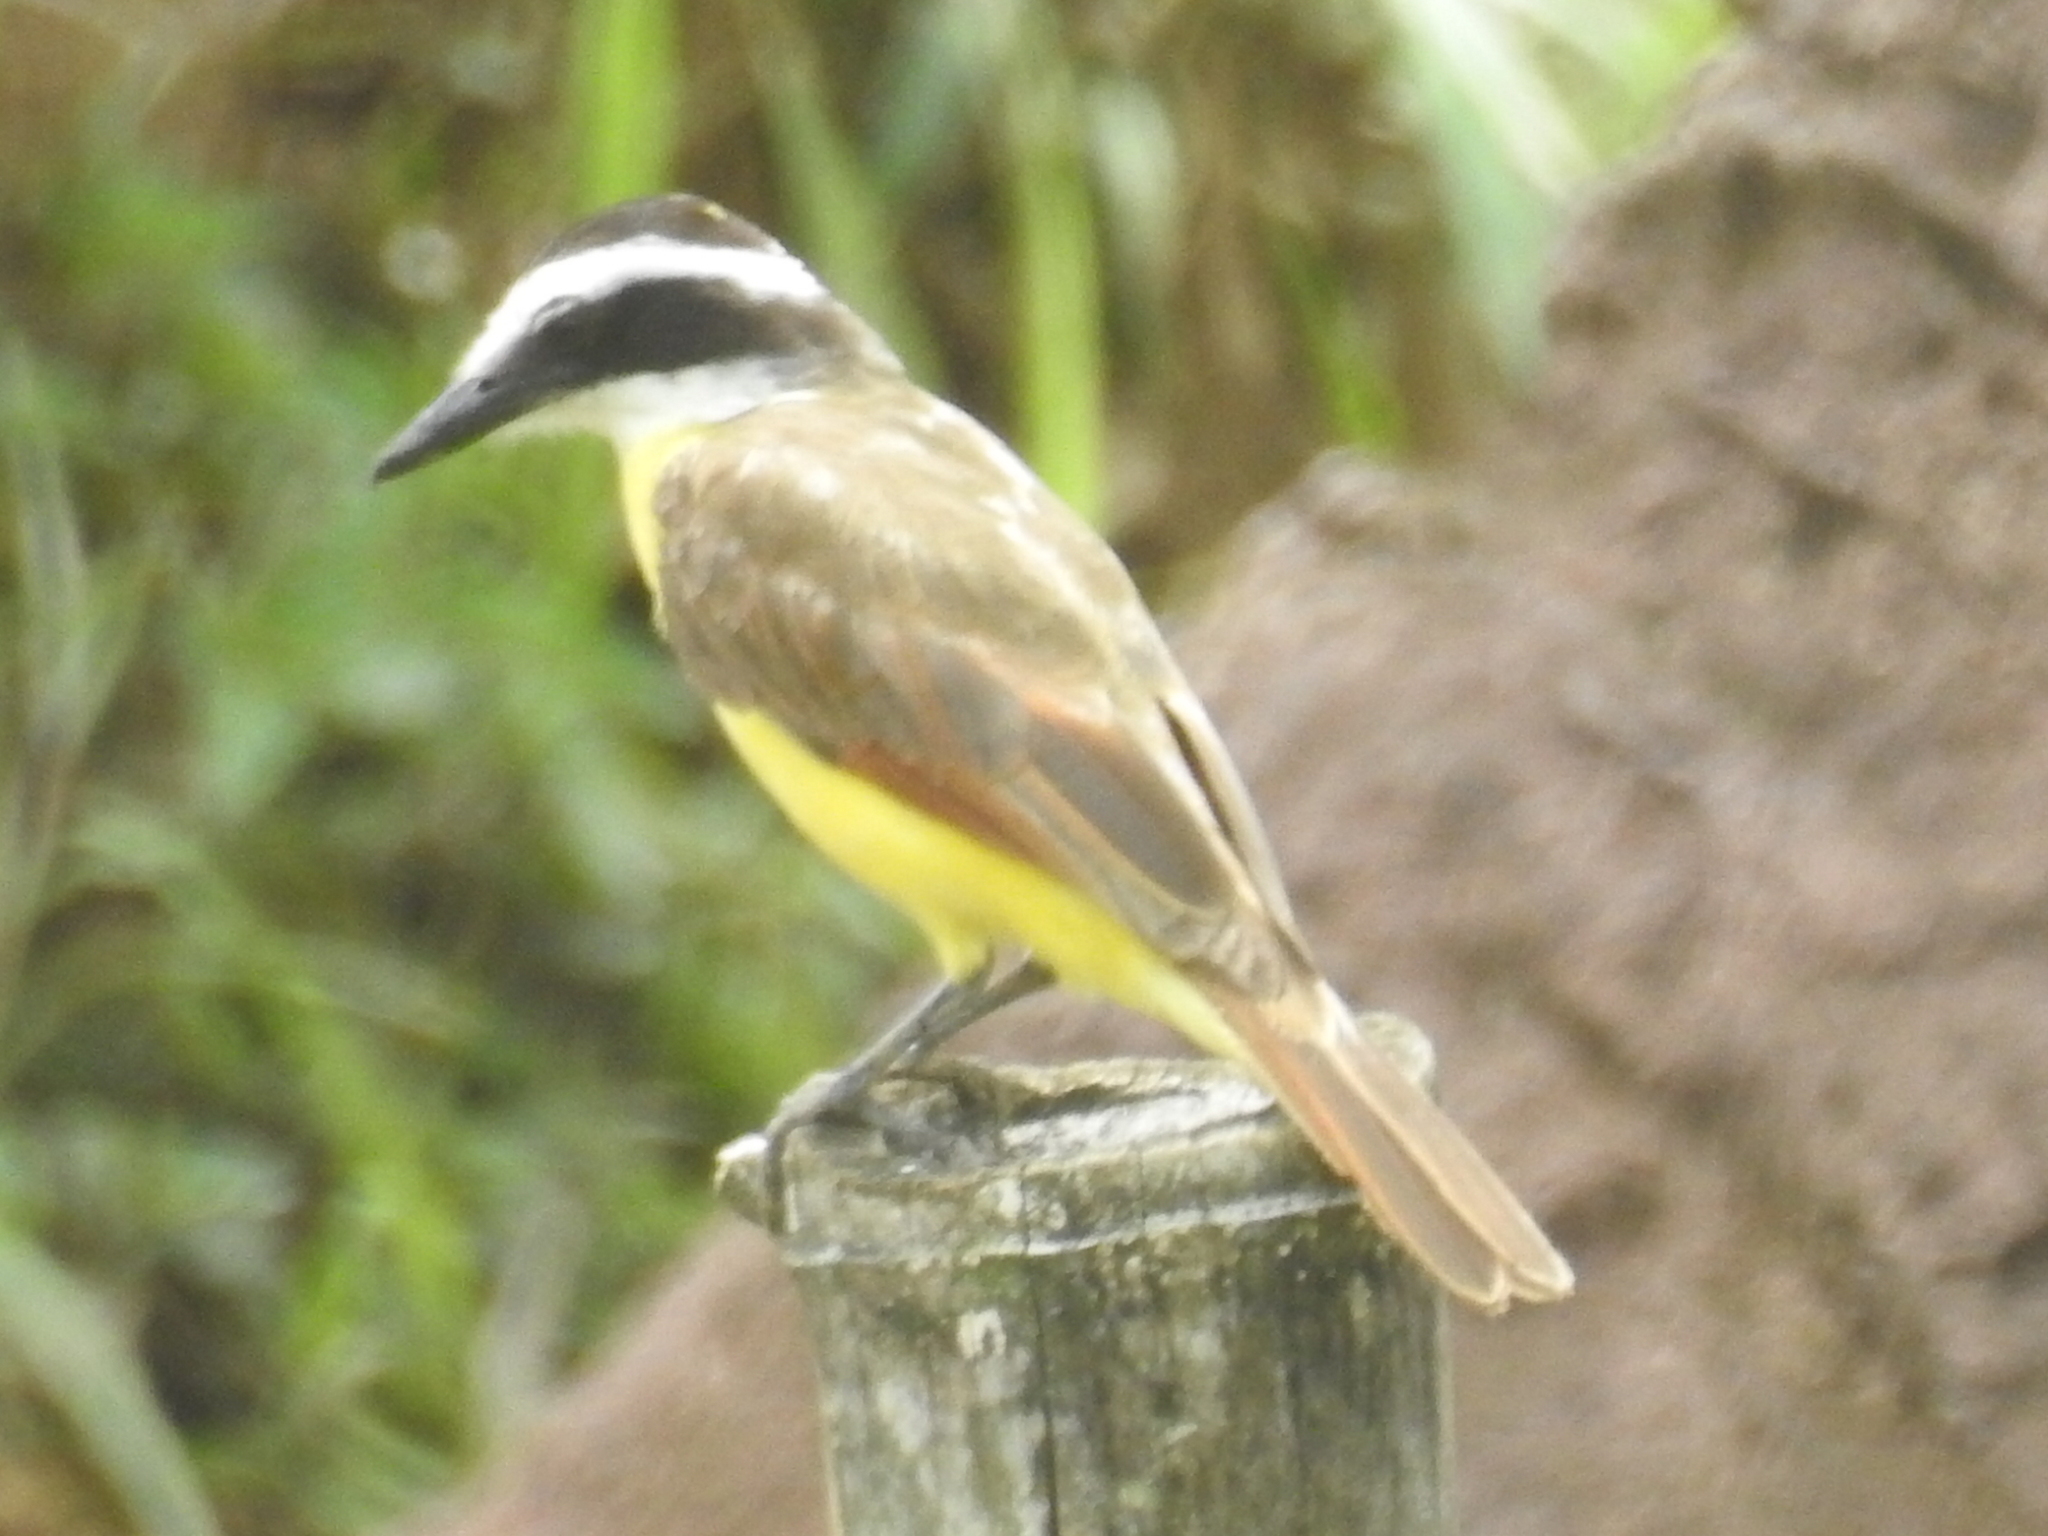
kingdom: Animalia
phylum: Chordata
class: Aves
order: Passeriformes
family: Tyrannidae
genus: Pitangus
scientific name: Pitangus sulphuratus
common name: Great kiskadee
